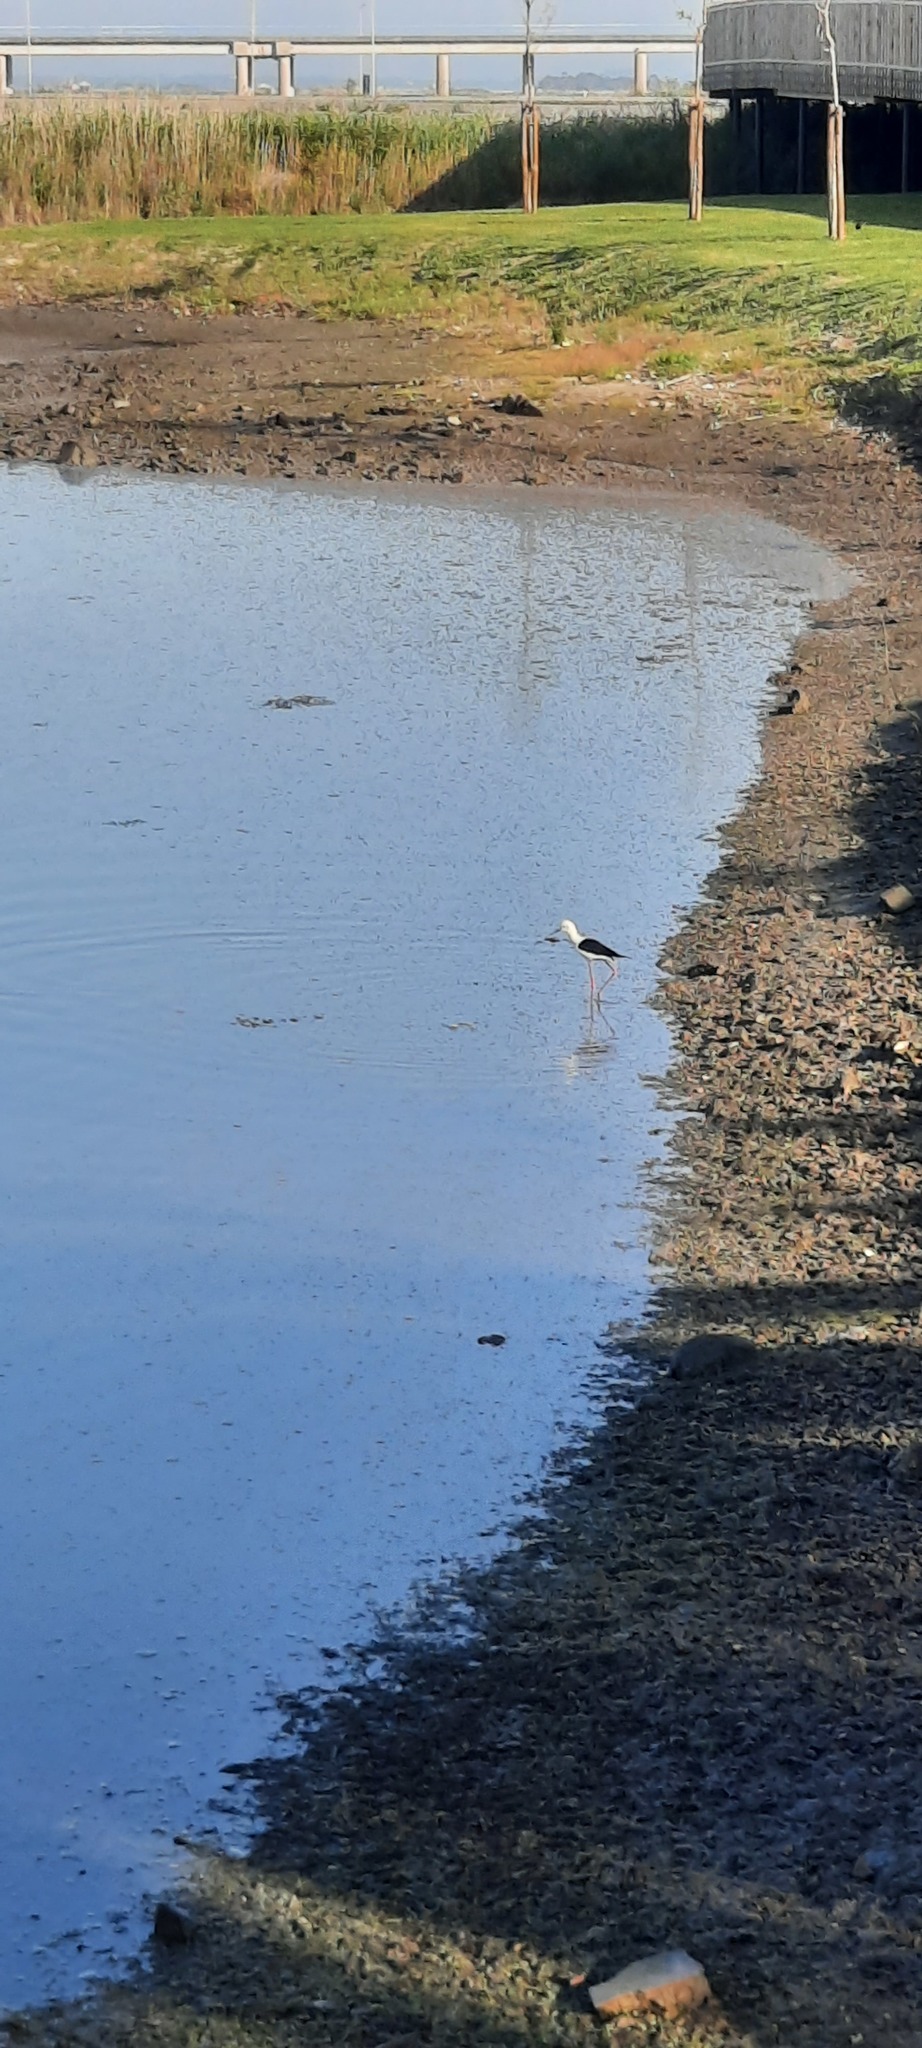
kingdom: Animalia
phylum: Chordata
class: Aves
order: Charadriiformes
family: Recurvirostridae
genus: Himantopus
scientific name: Himantopus himantopus
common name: Black-winged stilt
